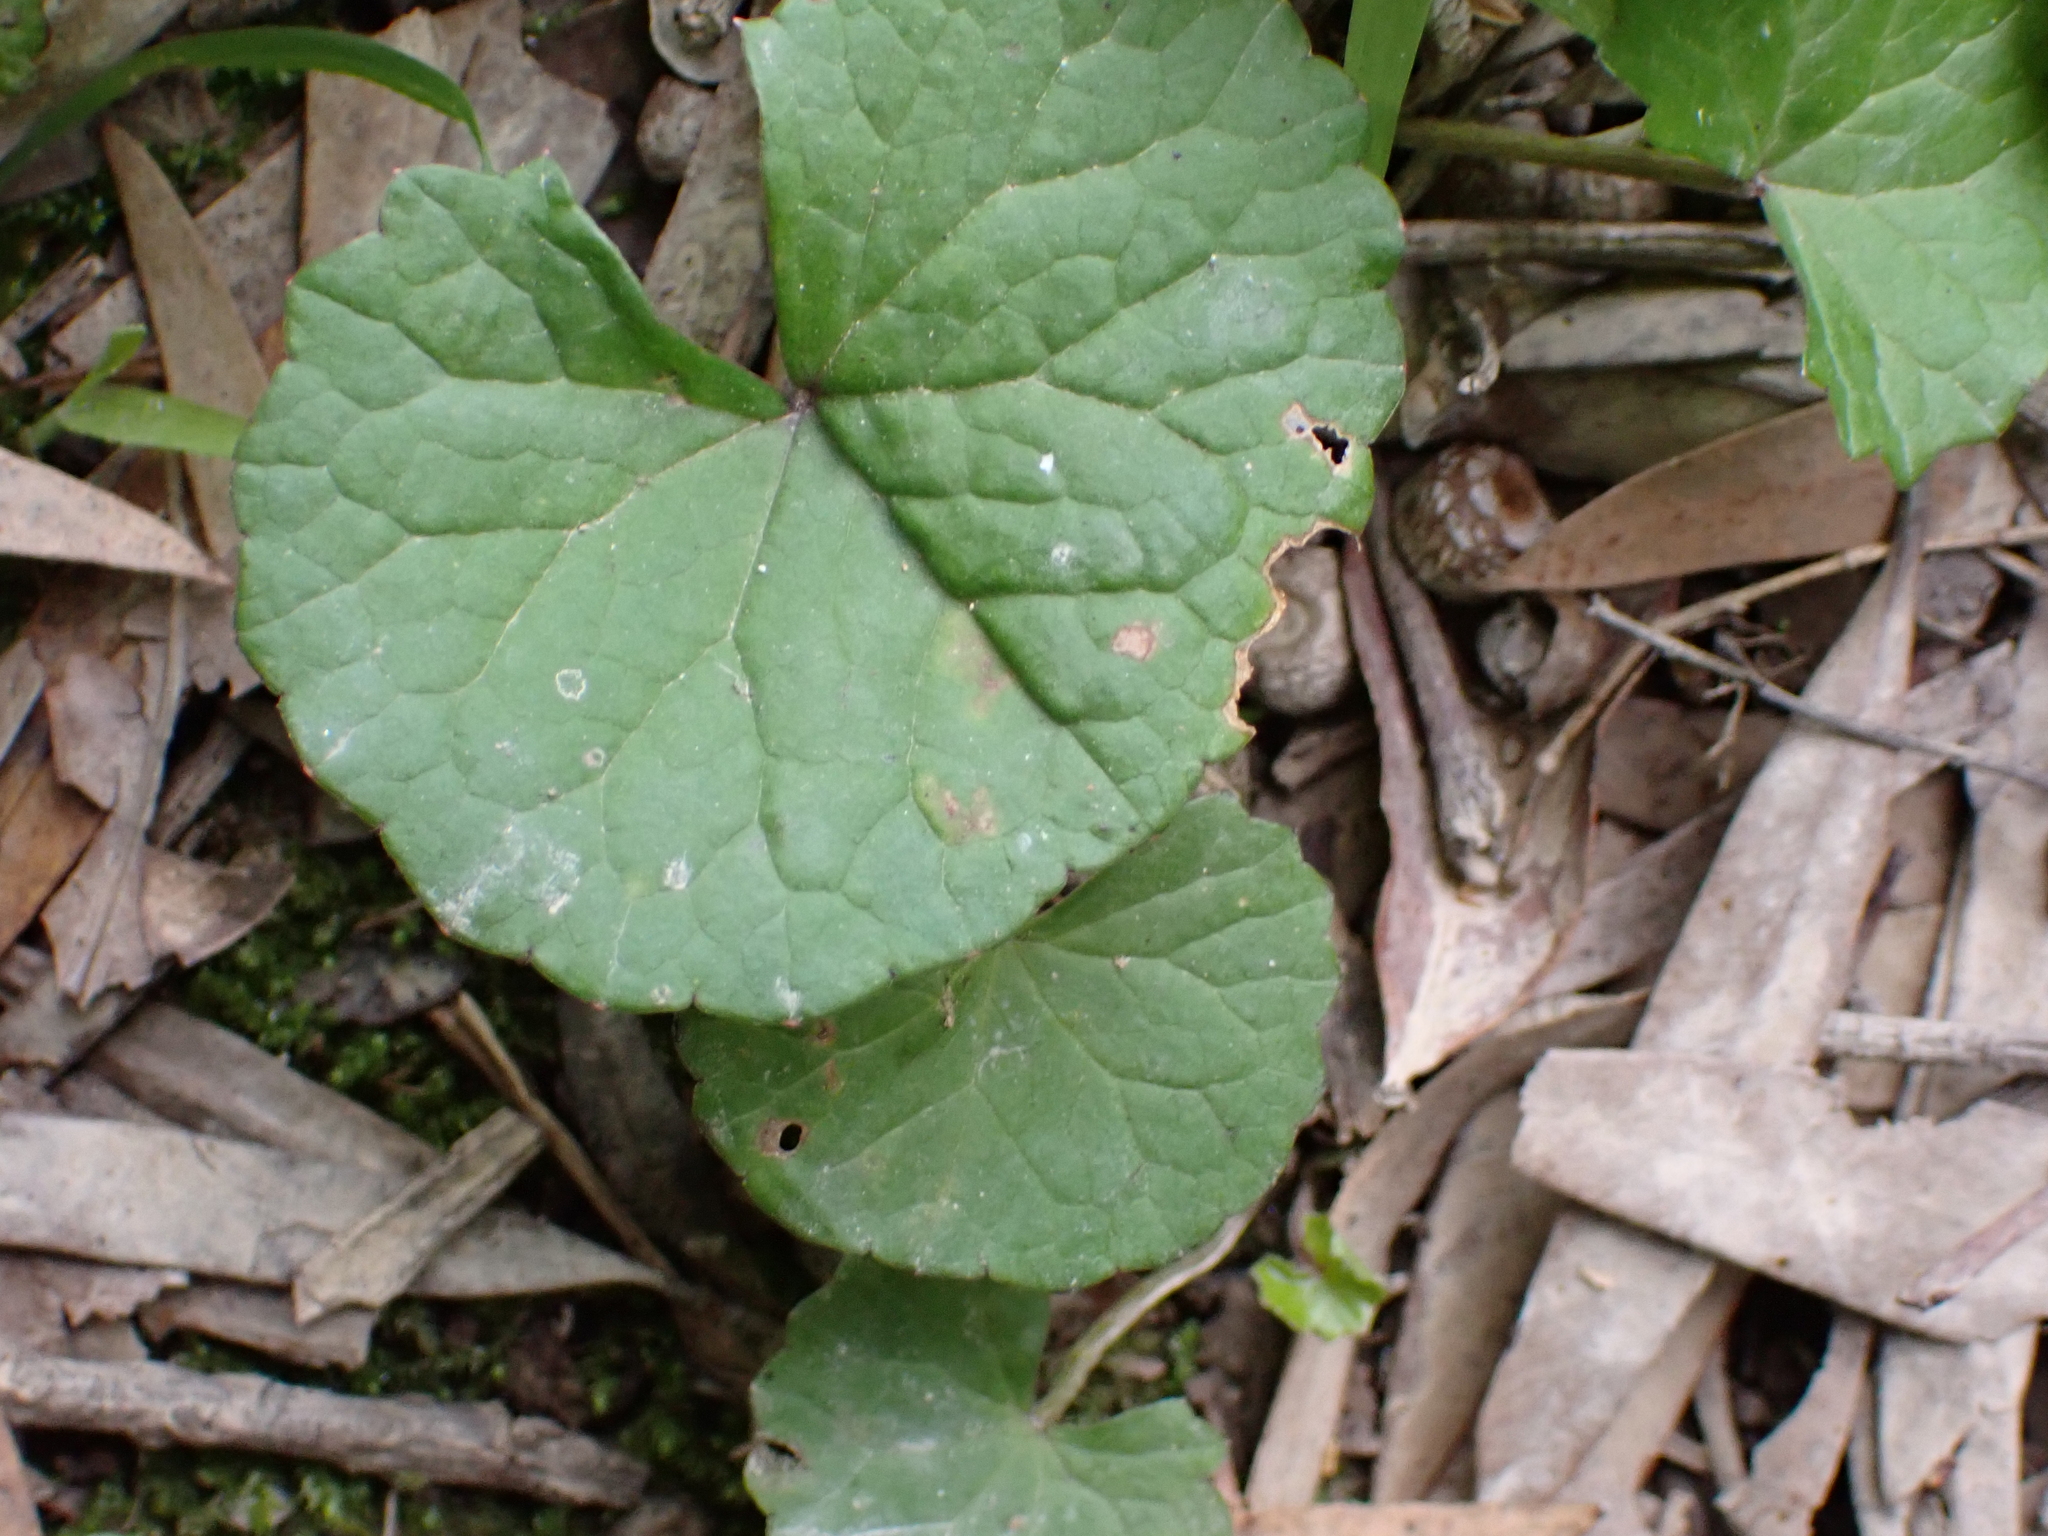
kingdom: Plantae
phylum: Tracheophyta
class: Magnoliopsida
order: Apiales
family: Apiaceae
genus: Centella
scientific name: Centella asiatica
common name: Spadeleaf
